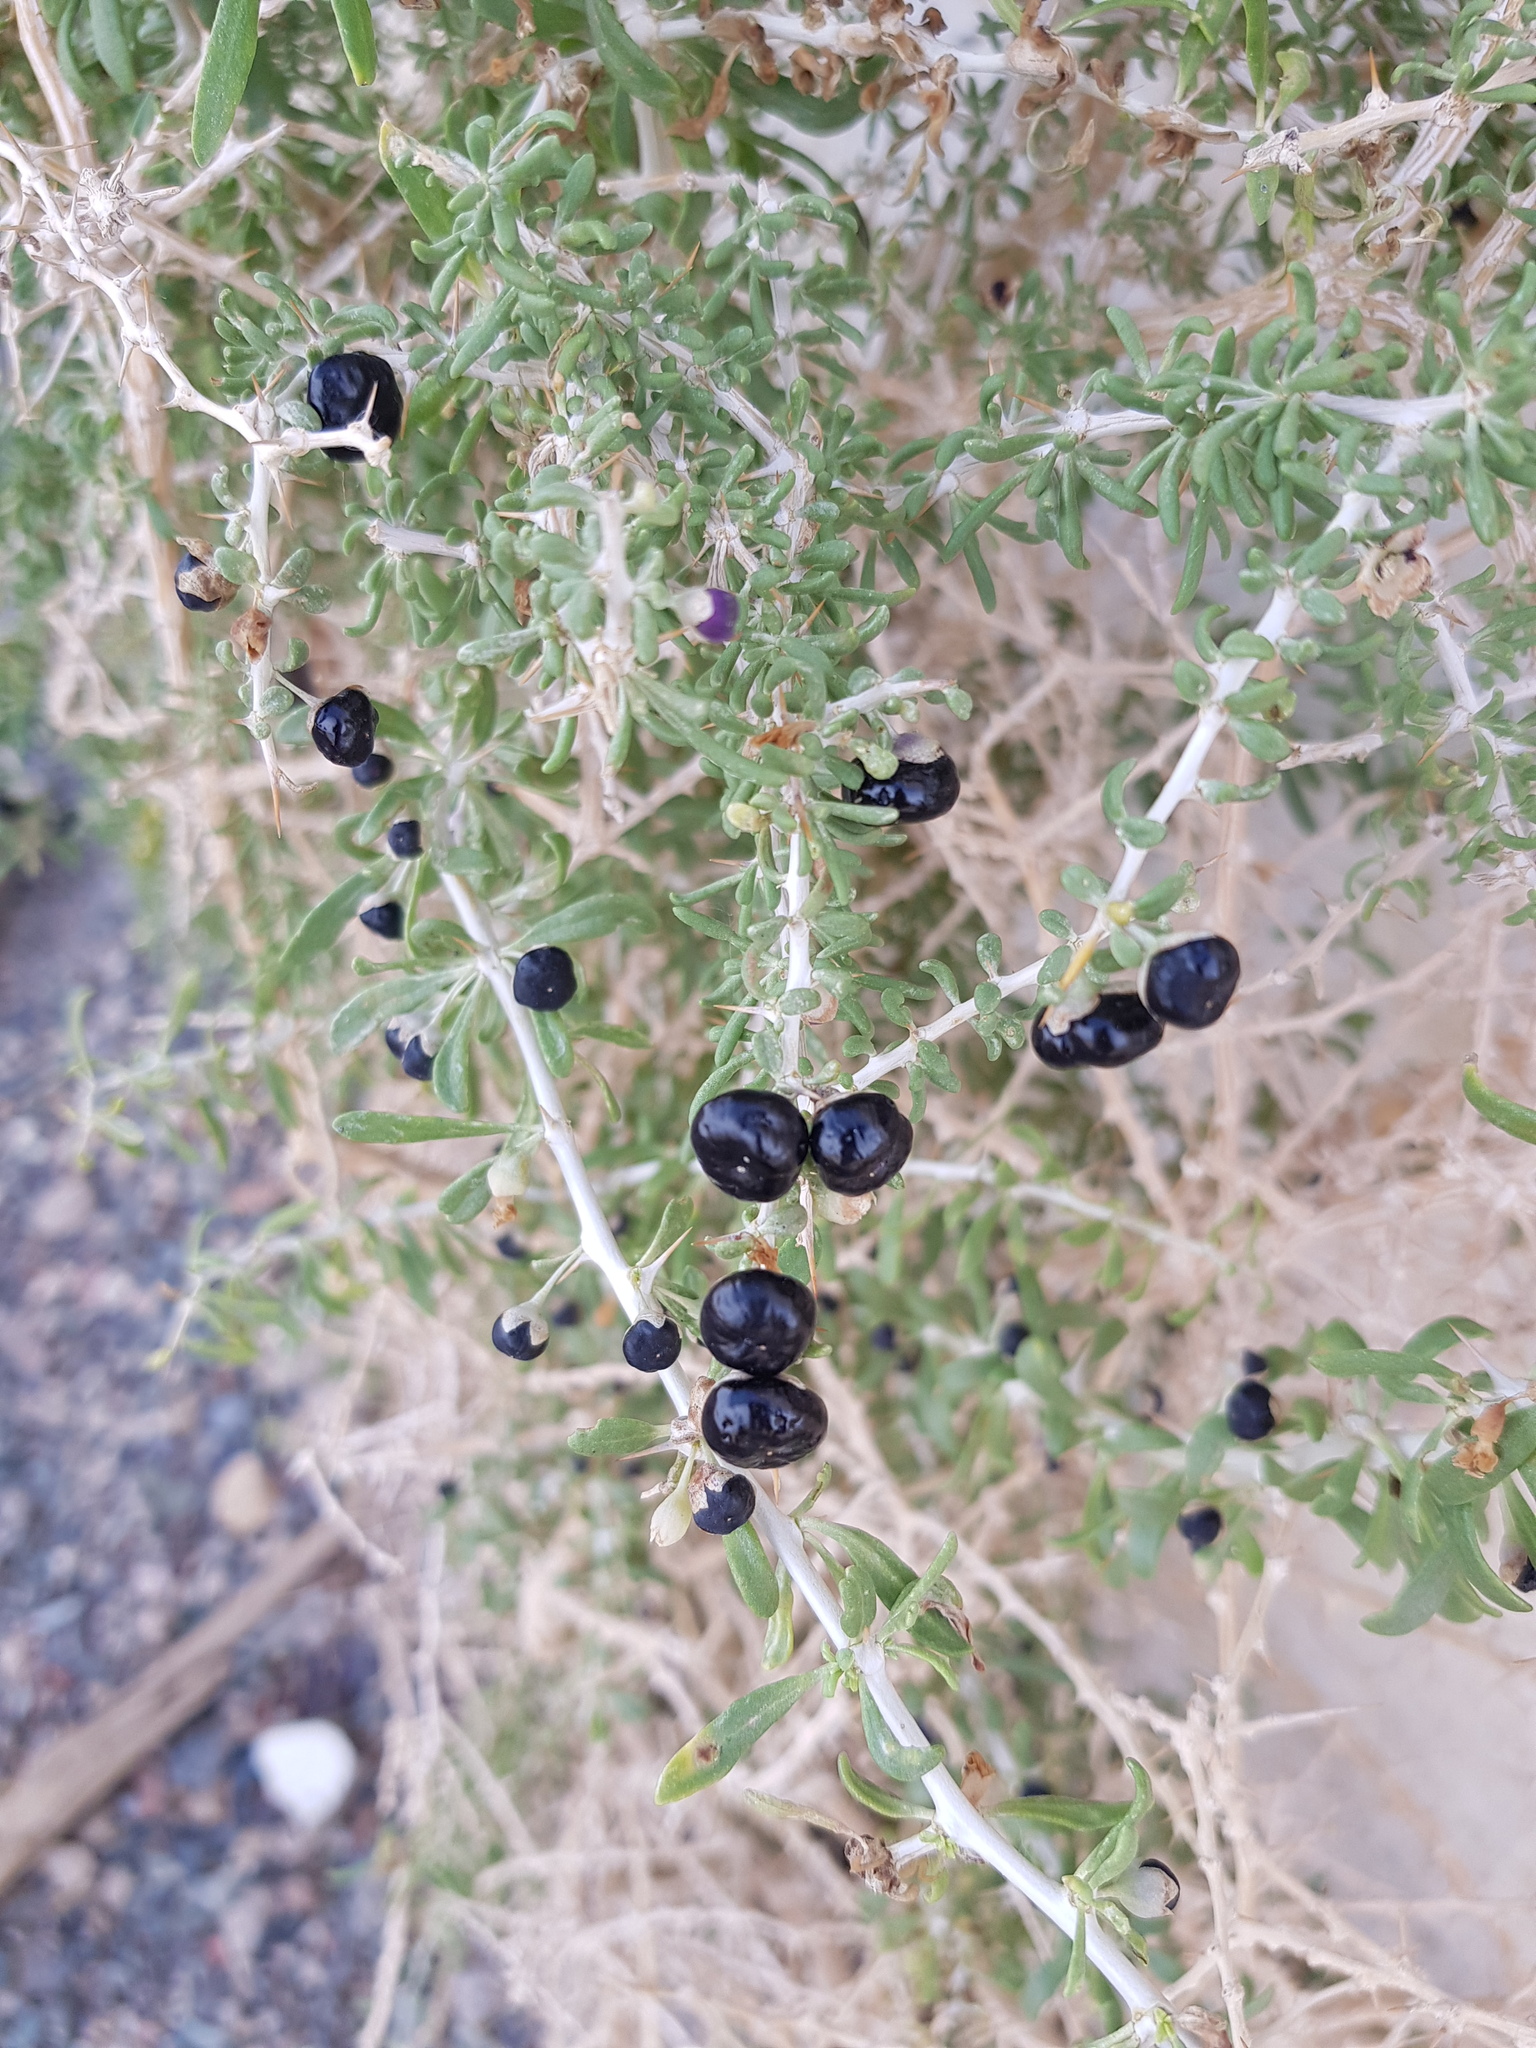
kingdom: Plantae
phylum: Tracheophyta
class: Magnoliopsida
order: Solanales
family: Solanaceae
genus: Lycium
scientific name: Lycium ruthenicum
